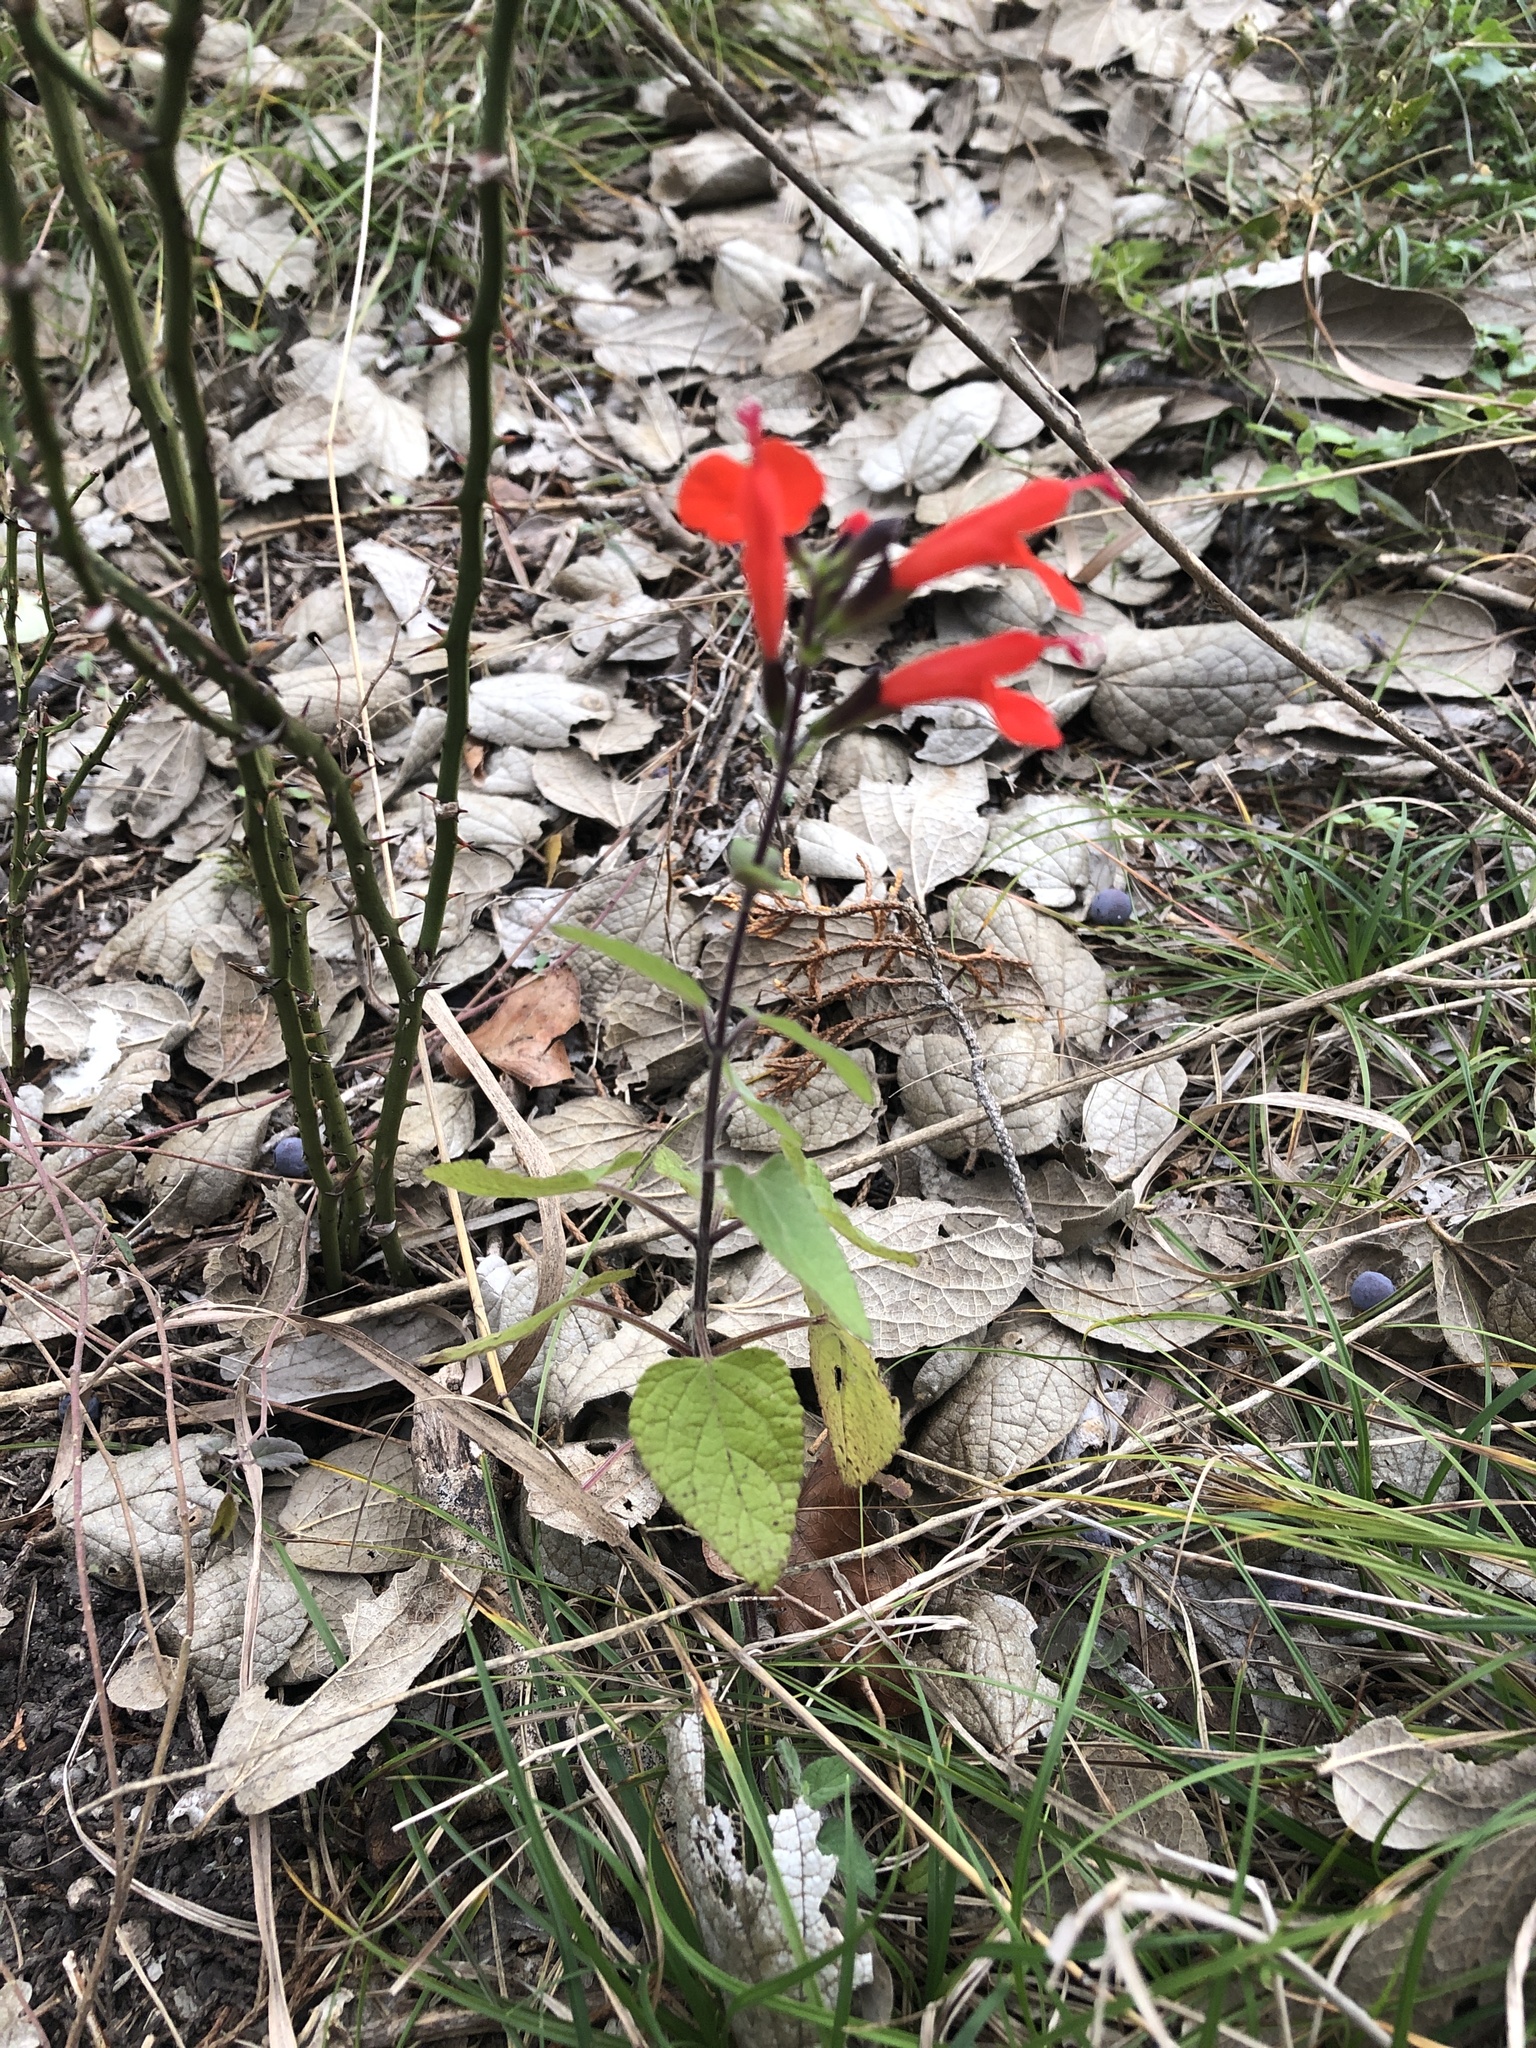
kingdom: Plantae
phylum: Tracheophyta
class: Magnoliopsida
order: Lamiales
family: Lamiaceae
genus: Salvia
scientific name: Salvia coccinea
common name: Blood sage
